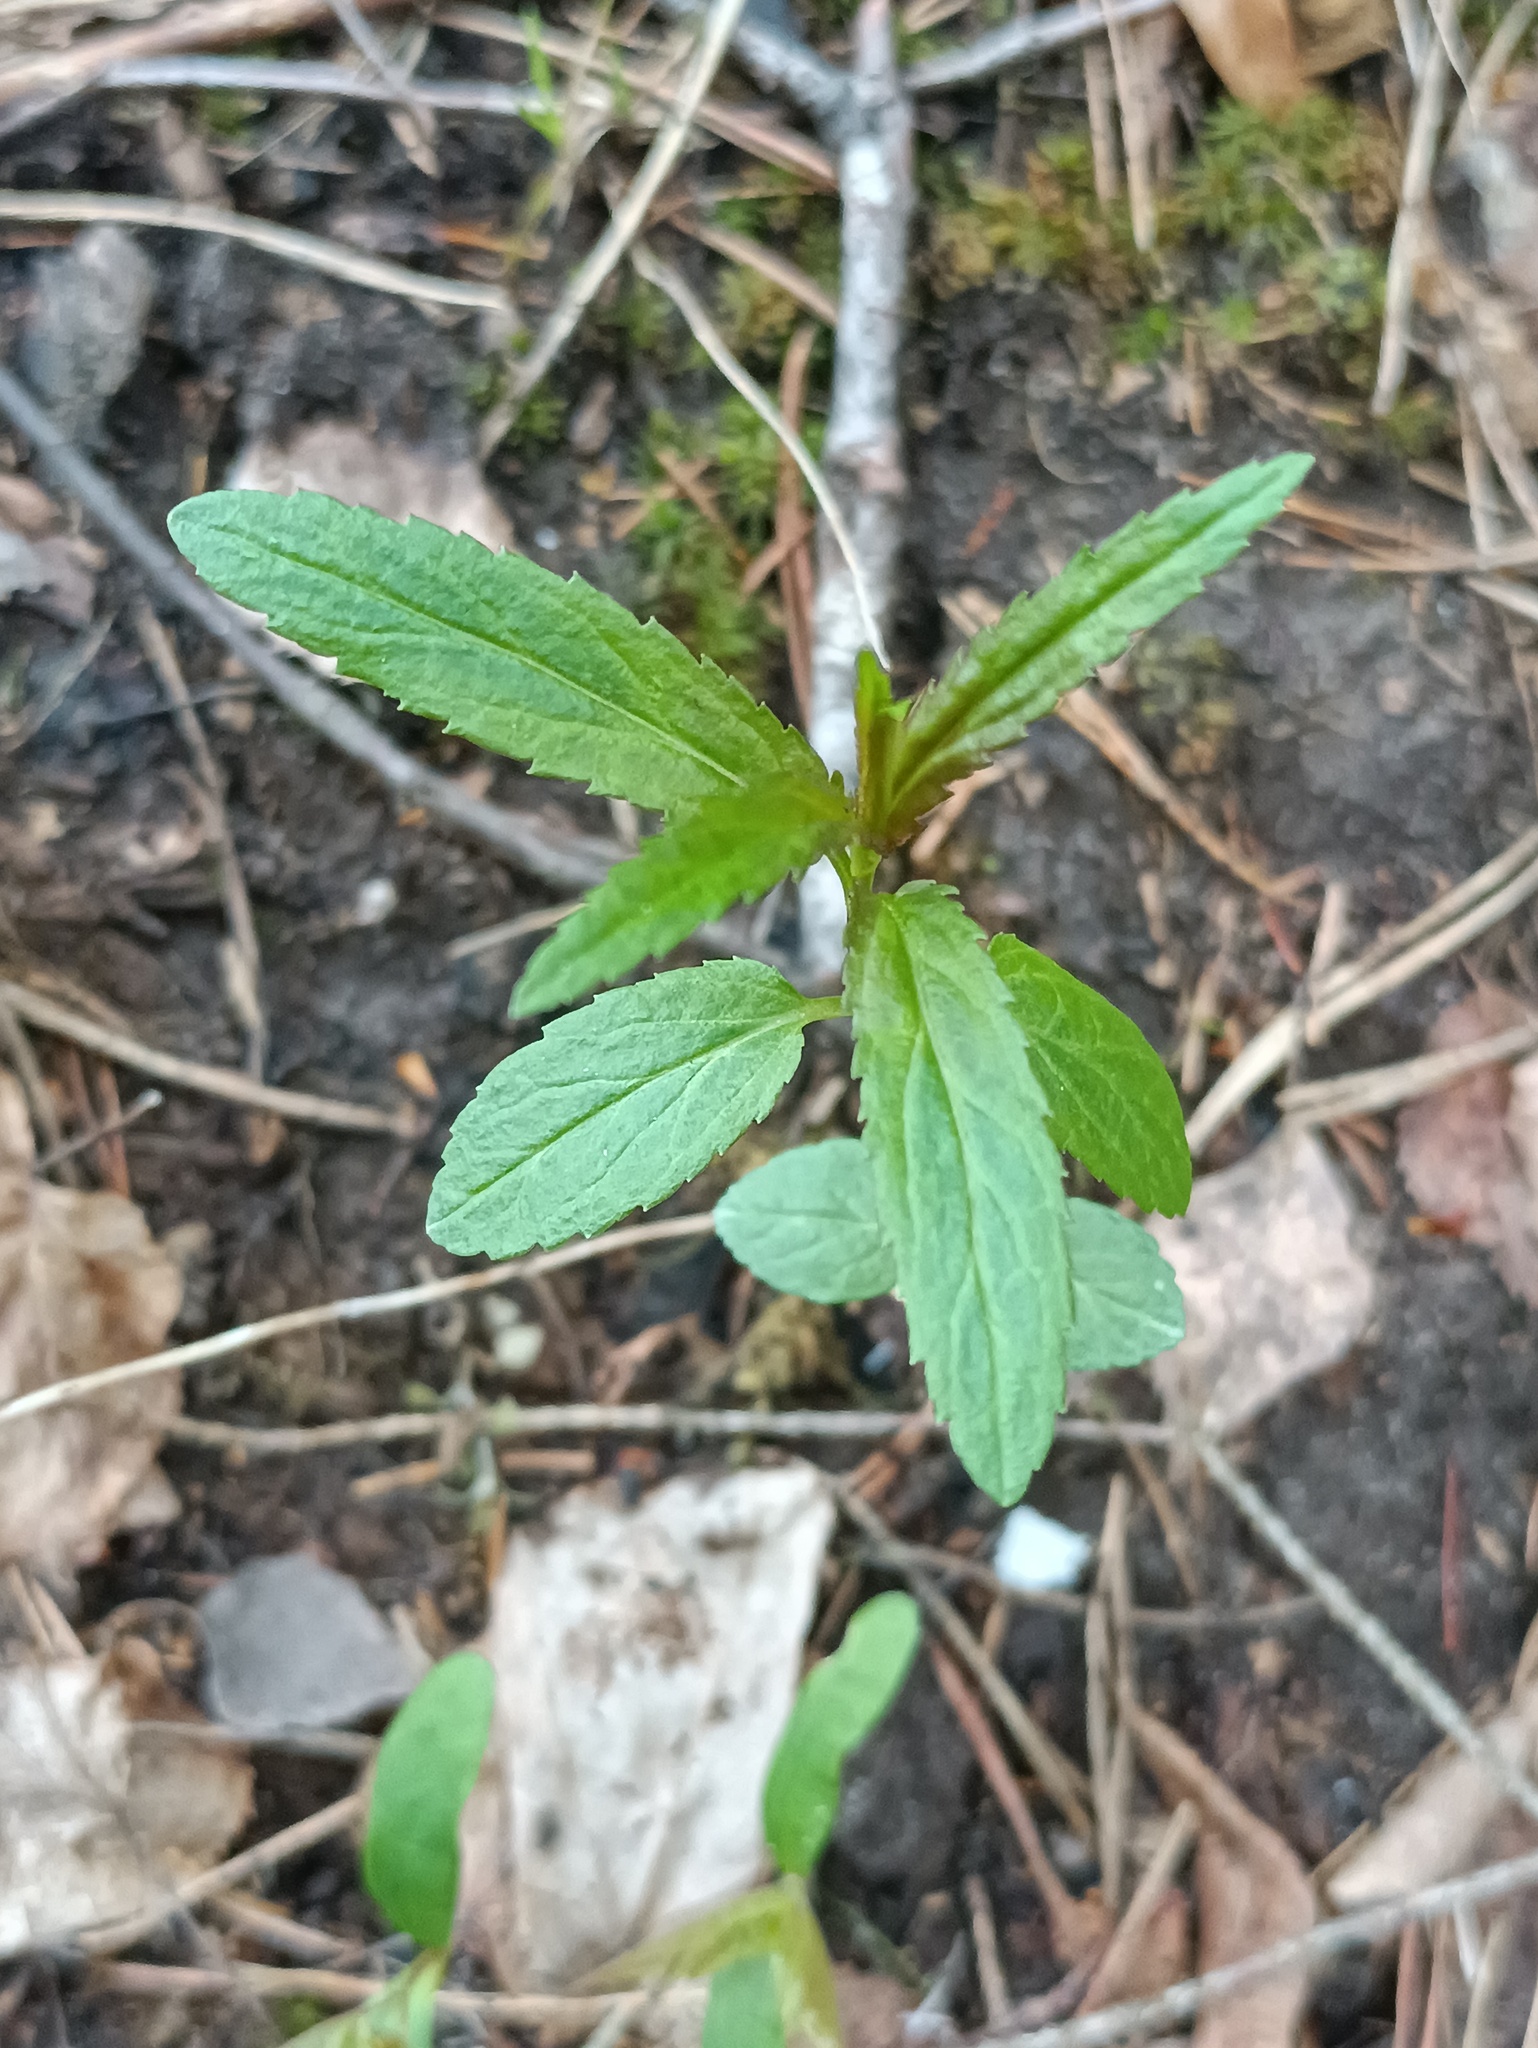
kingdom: Plantae
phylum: Tracheophyta
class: Magnoliopsida
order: Lamiales
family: Plantaginaceae
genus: Veronica
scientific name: Veronica longifolia
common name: Garden speedwell
